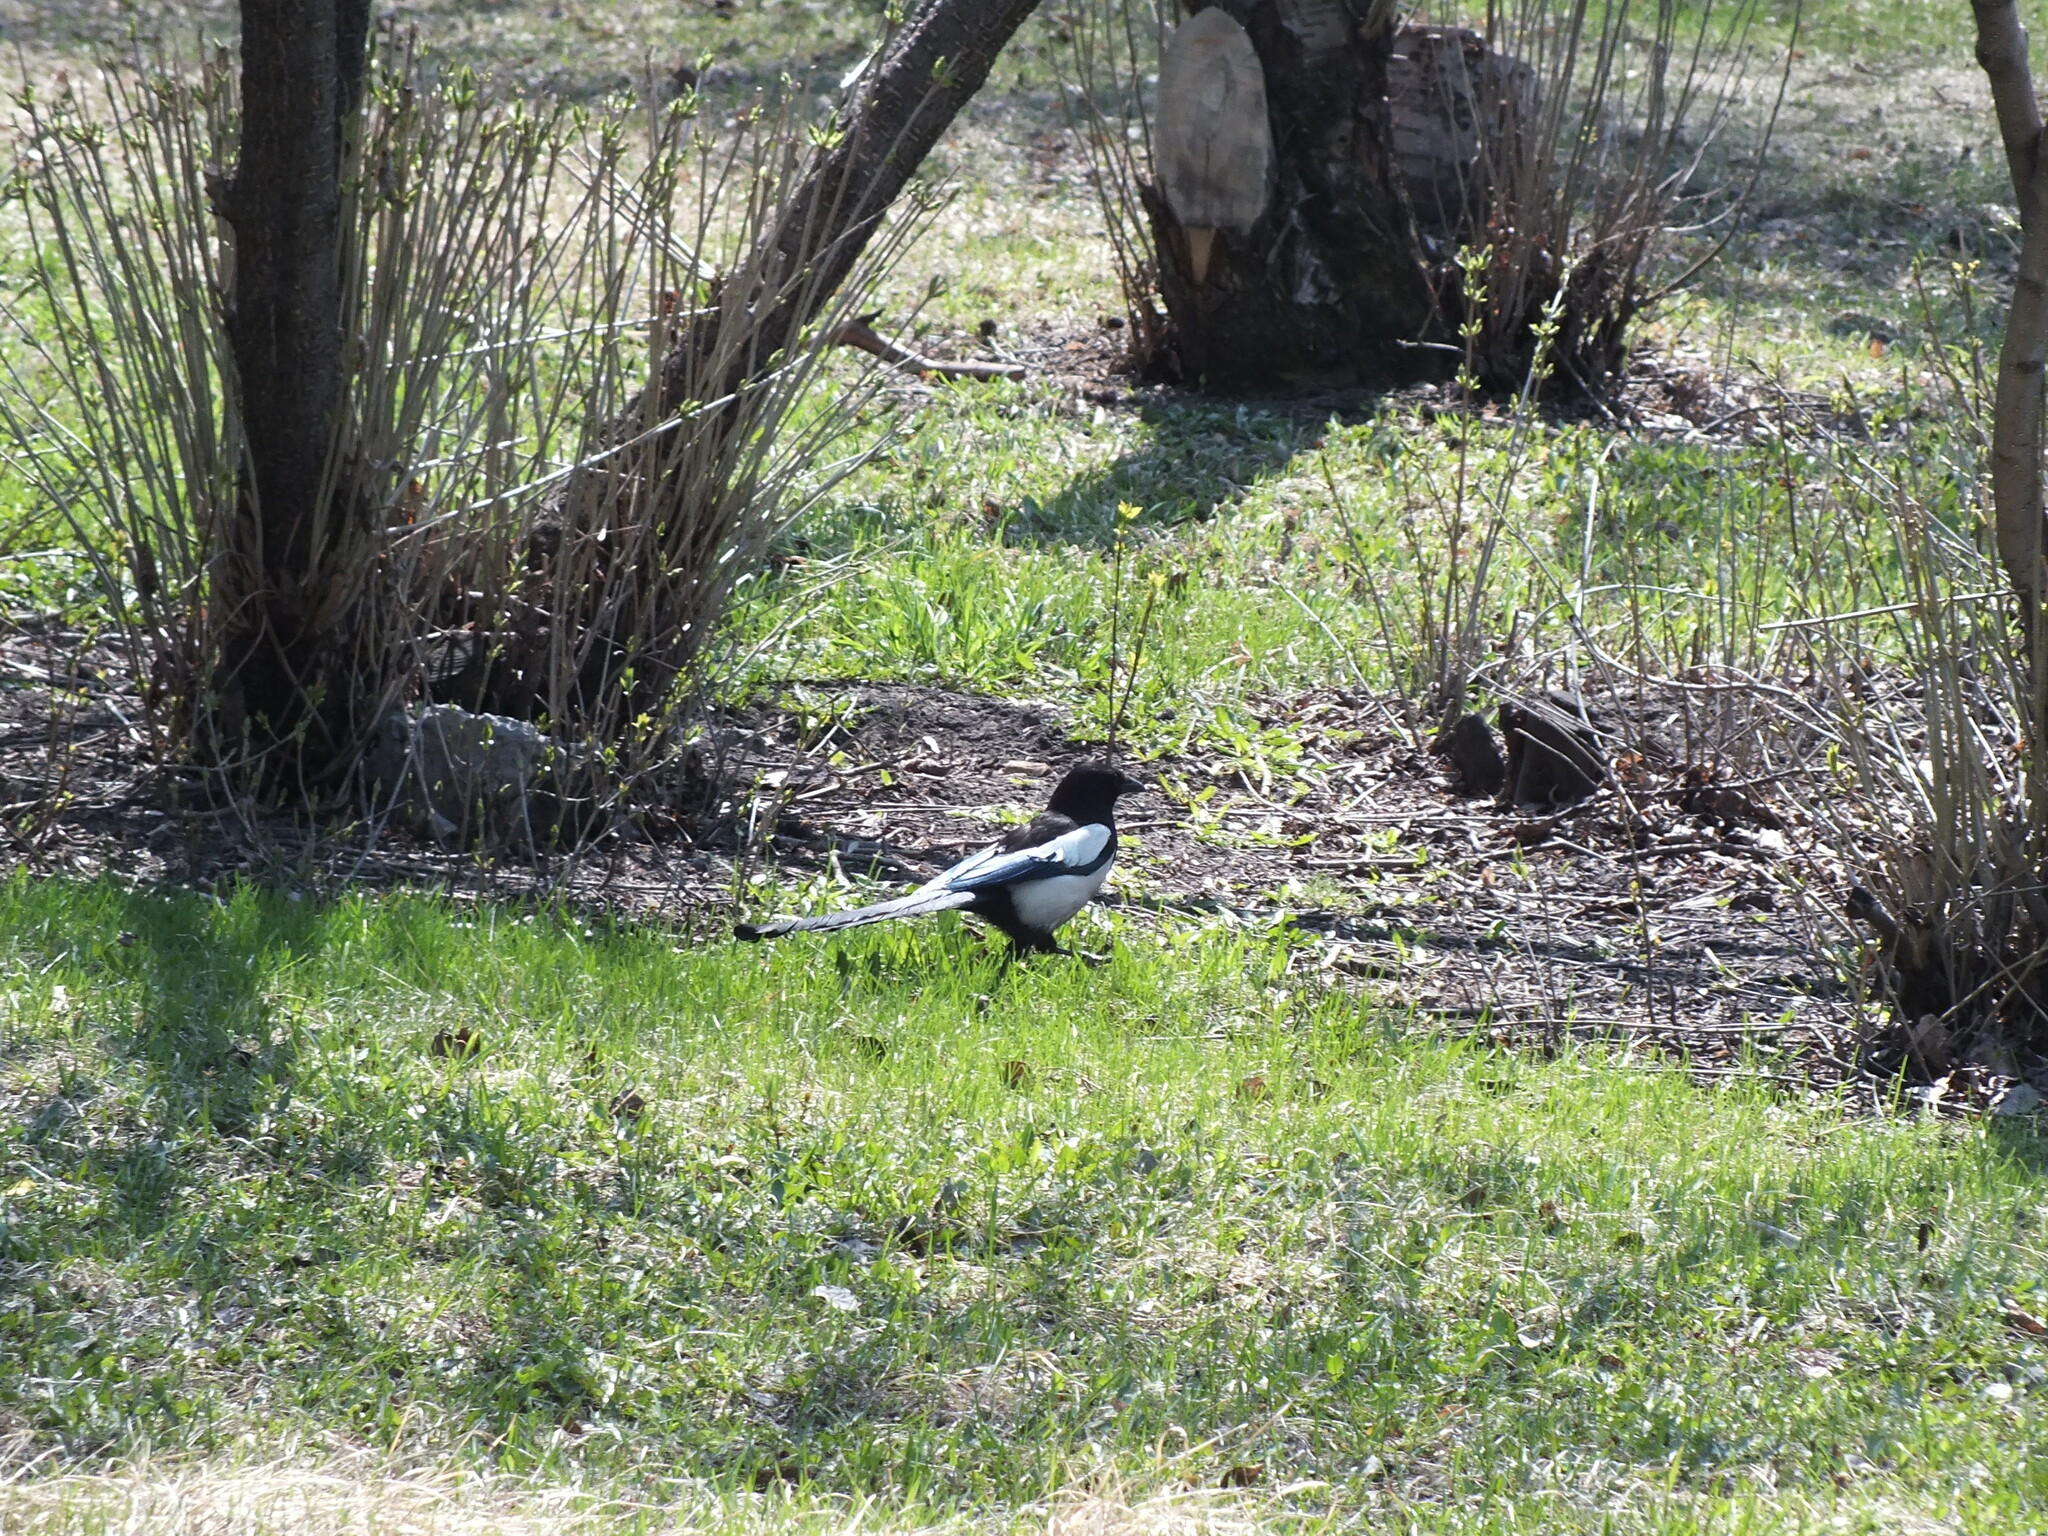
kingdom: Animalia
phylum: Chordata
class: Aves
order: Passeriformes
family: Corvidae
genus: Pica
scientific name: Pica pica
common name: Eurasian magpie
